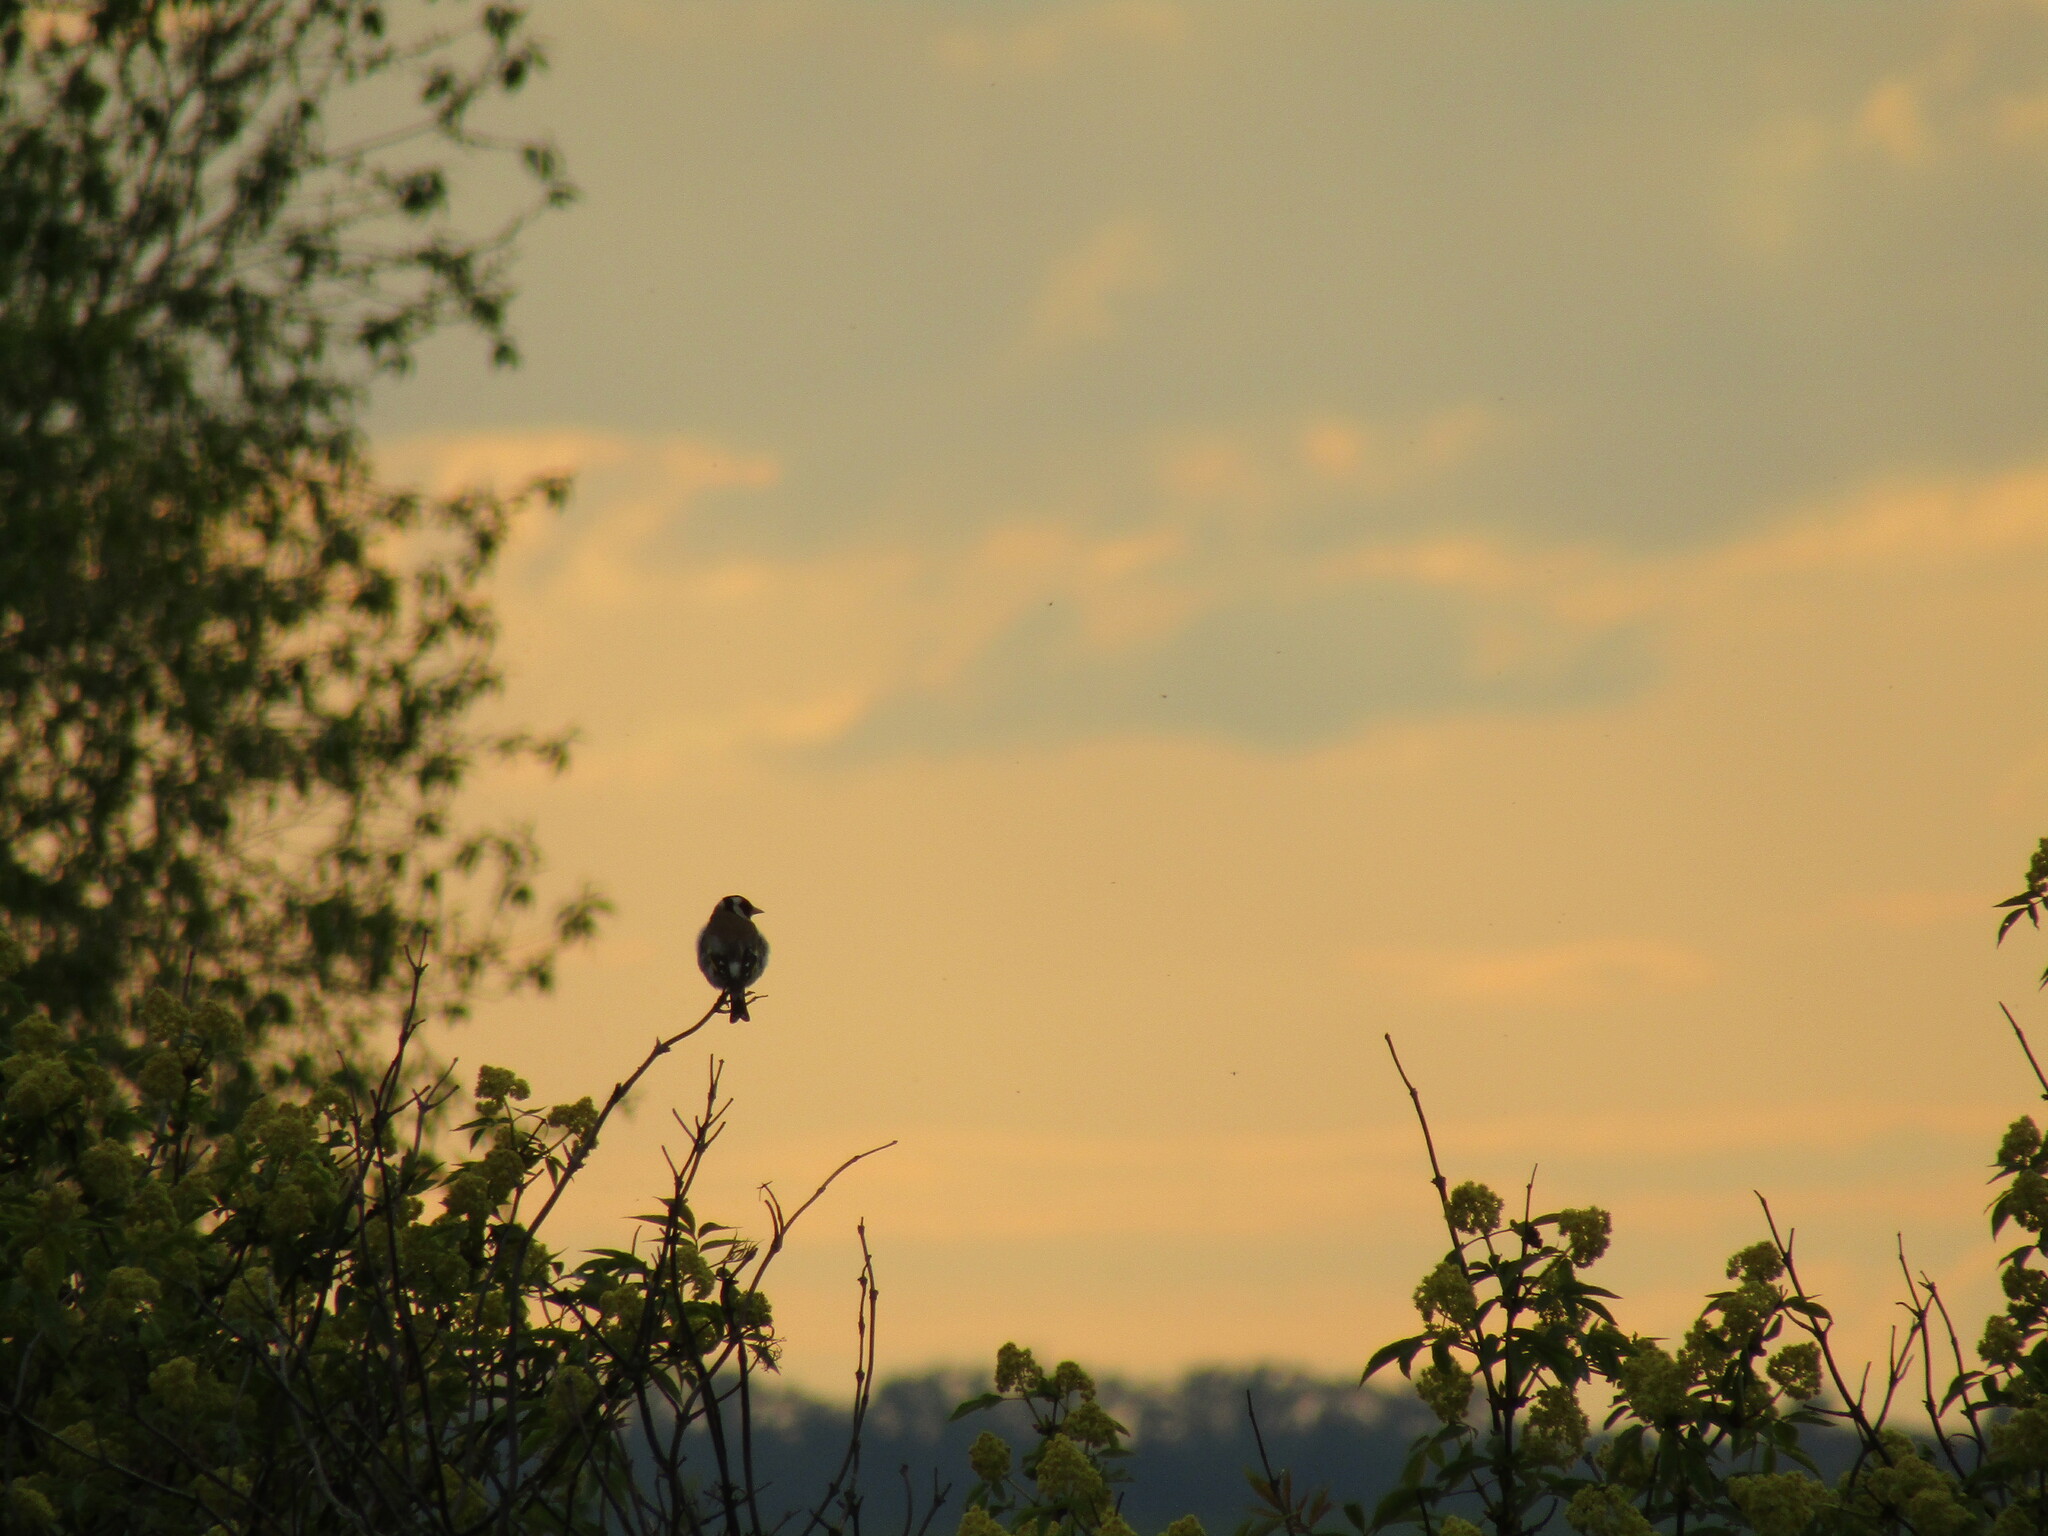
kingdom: Animalia
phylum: Chordata
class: Aves
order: Passeriformes
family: Fringillidae
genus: Carduelis
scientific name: Carduelis carduelis
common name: European goldfinch
